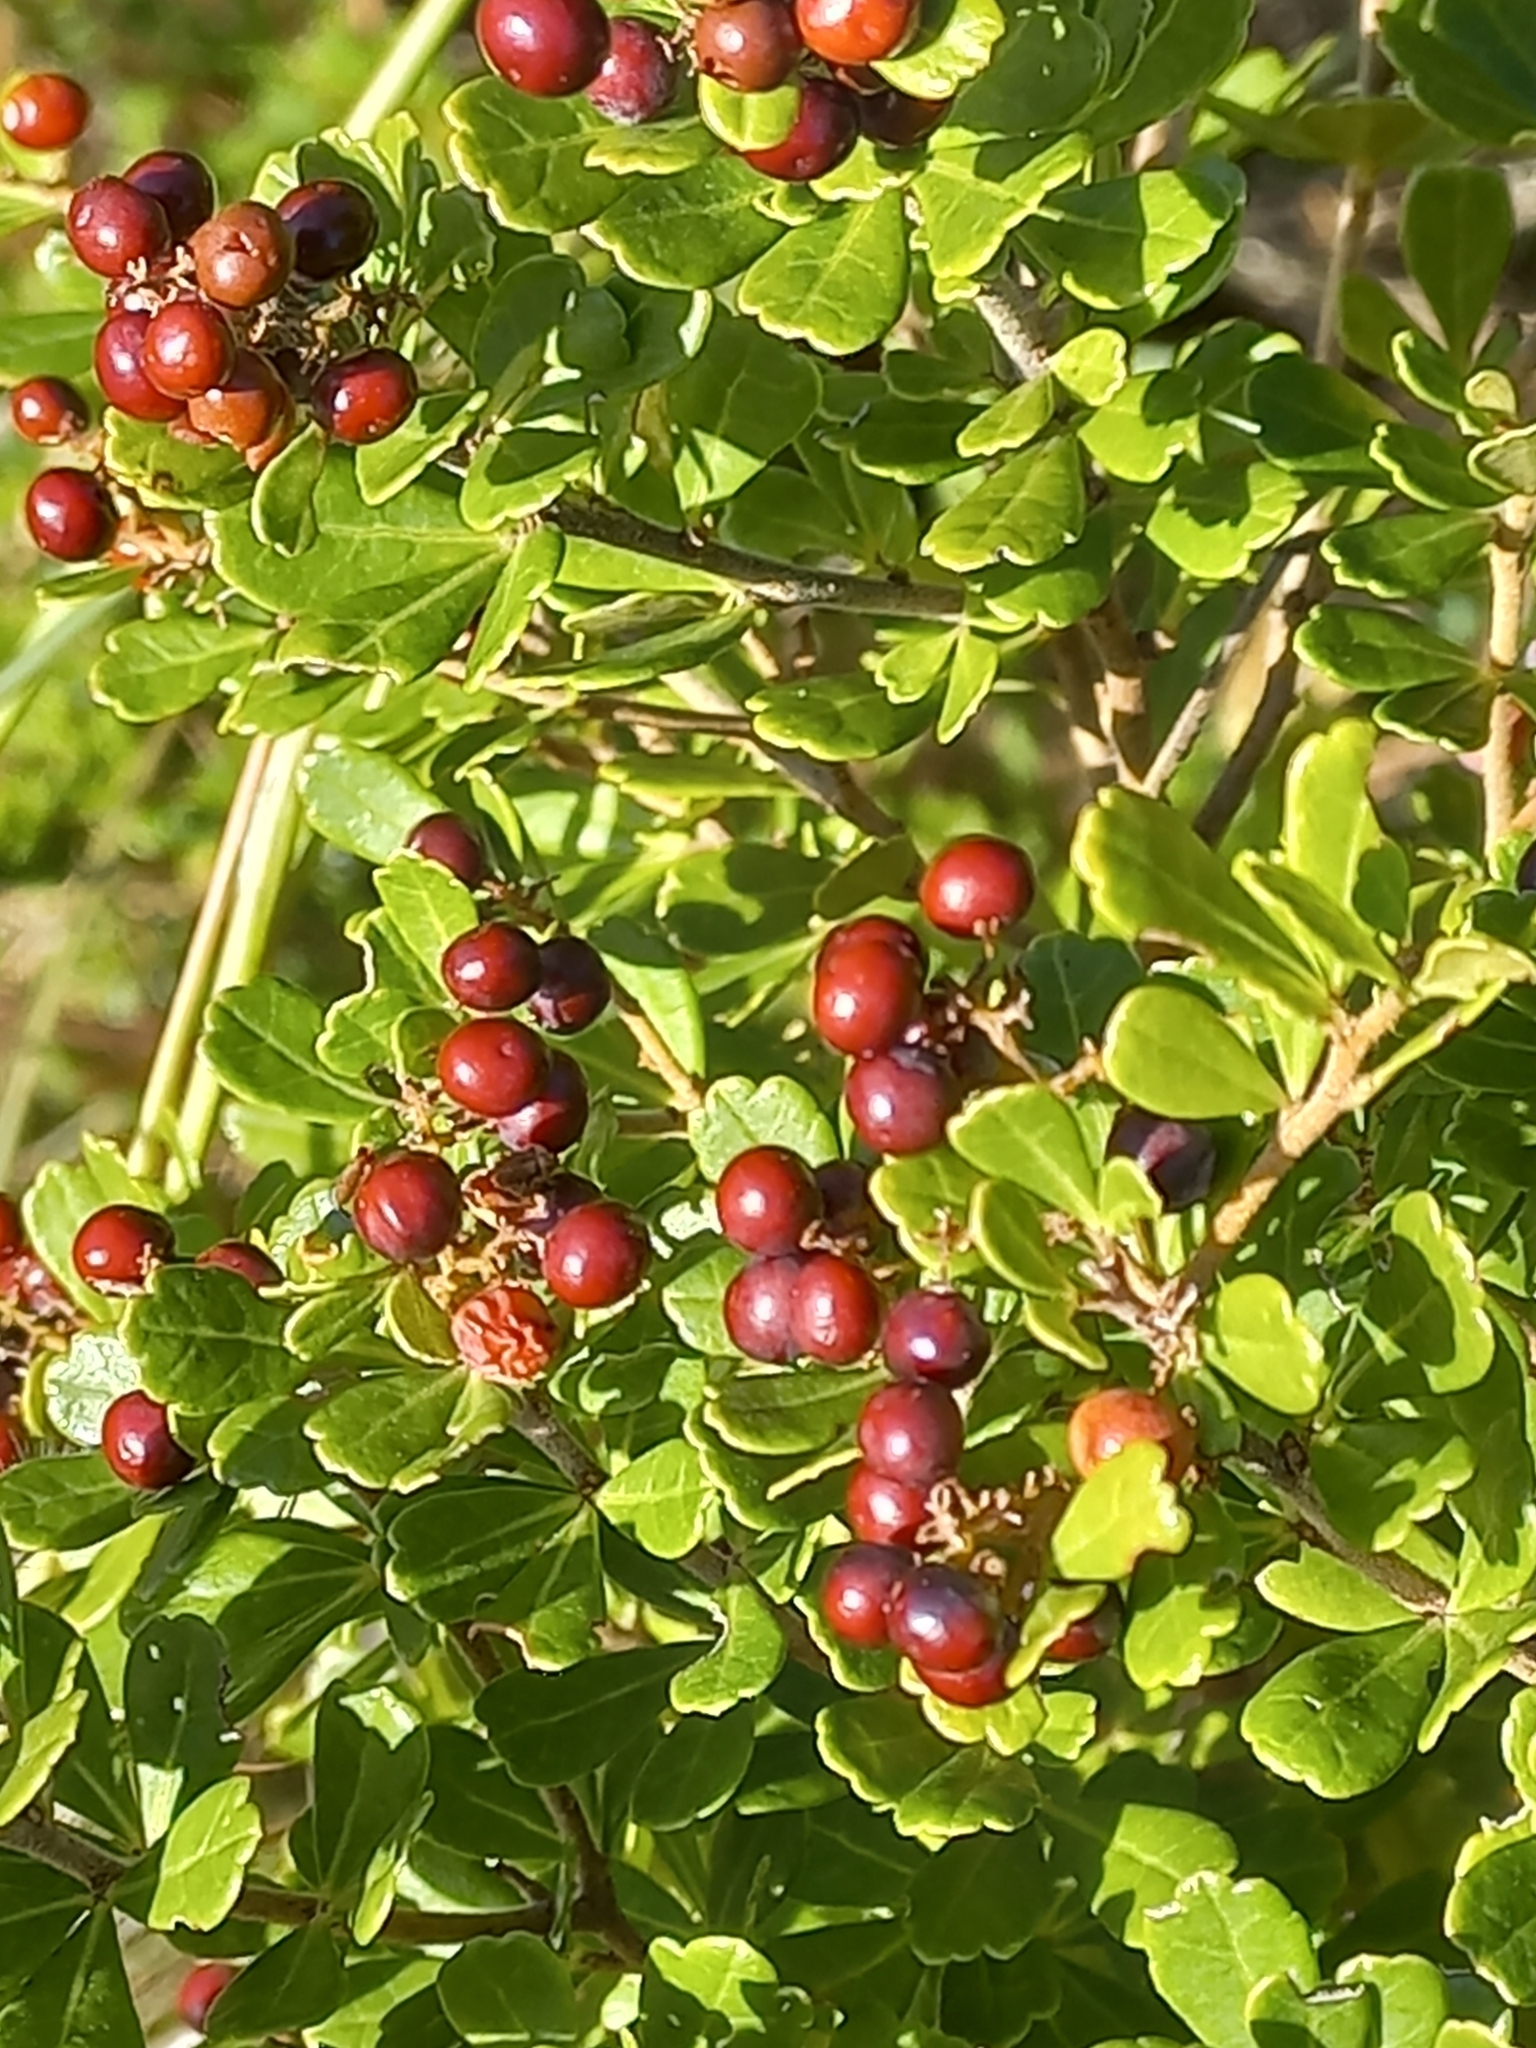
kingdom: Plantae
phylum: Tracheophyta
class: Magnoliopsida
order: Sapindales
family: Anacardiaceae
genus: Searsia
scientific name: Searsia crenata
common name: Crowberry
